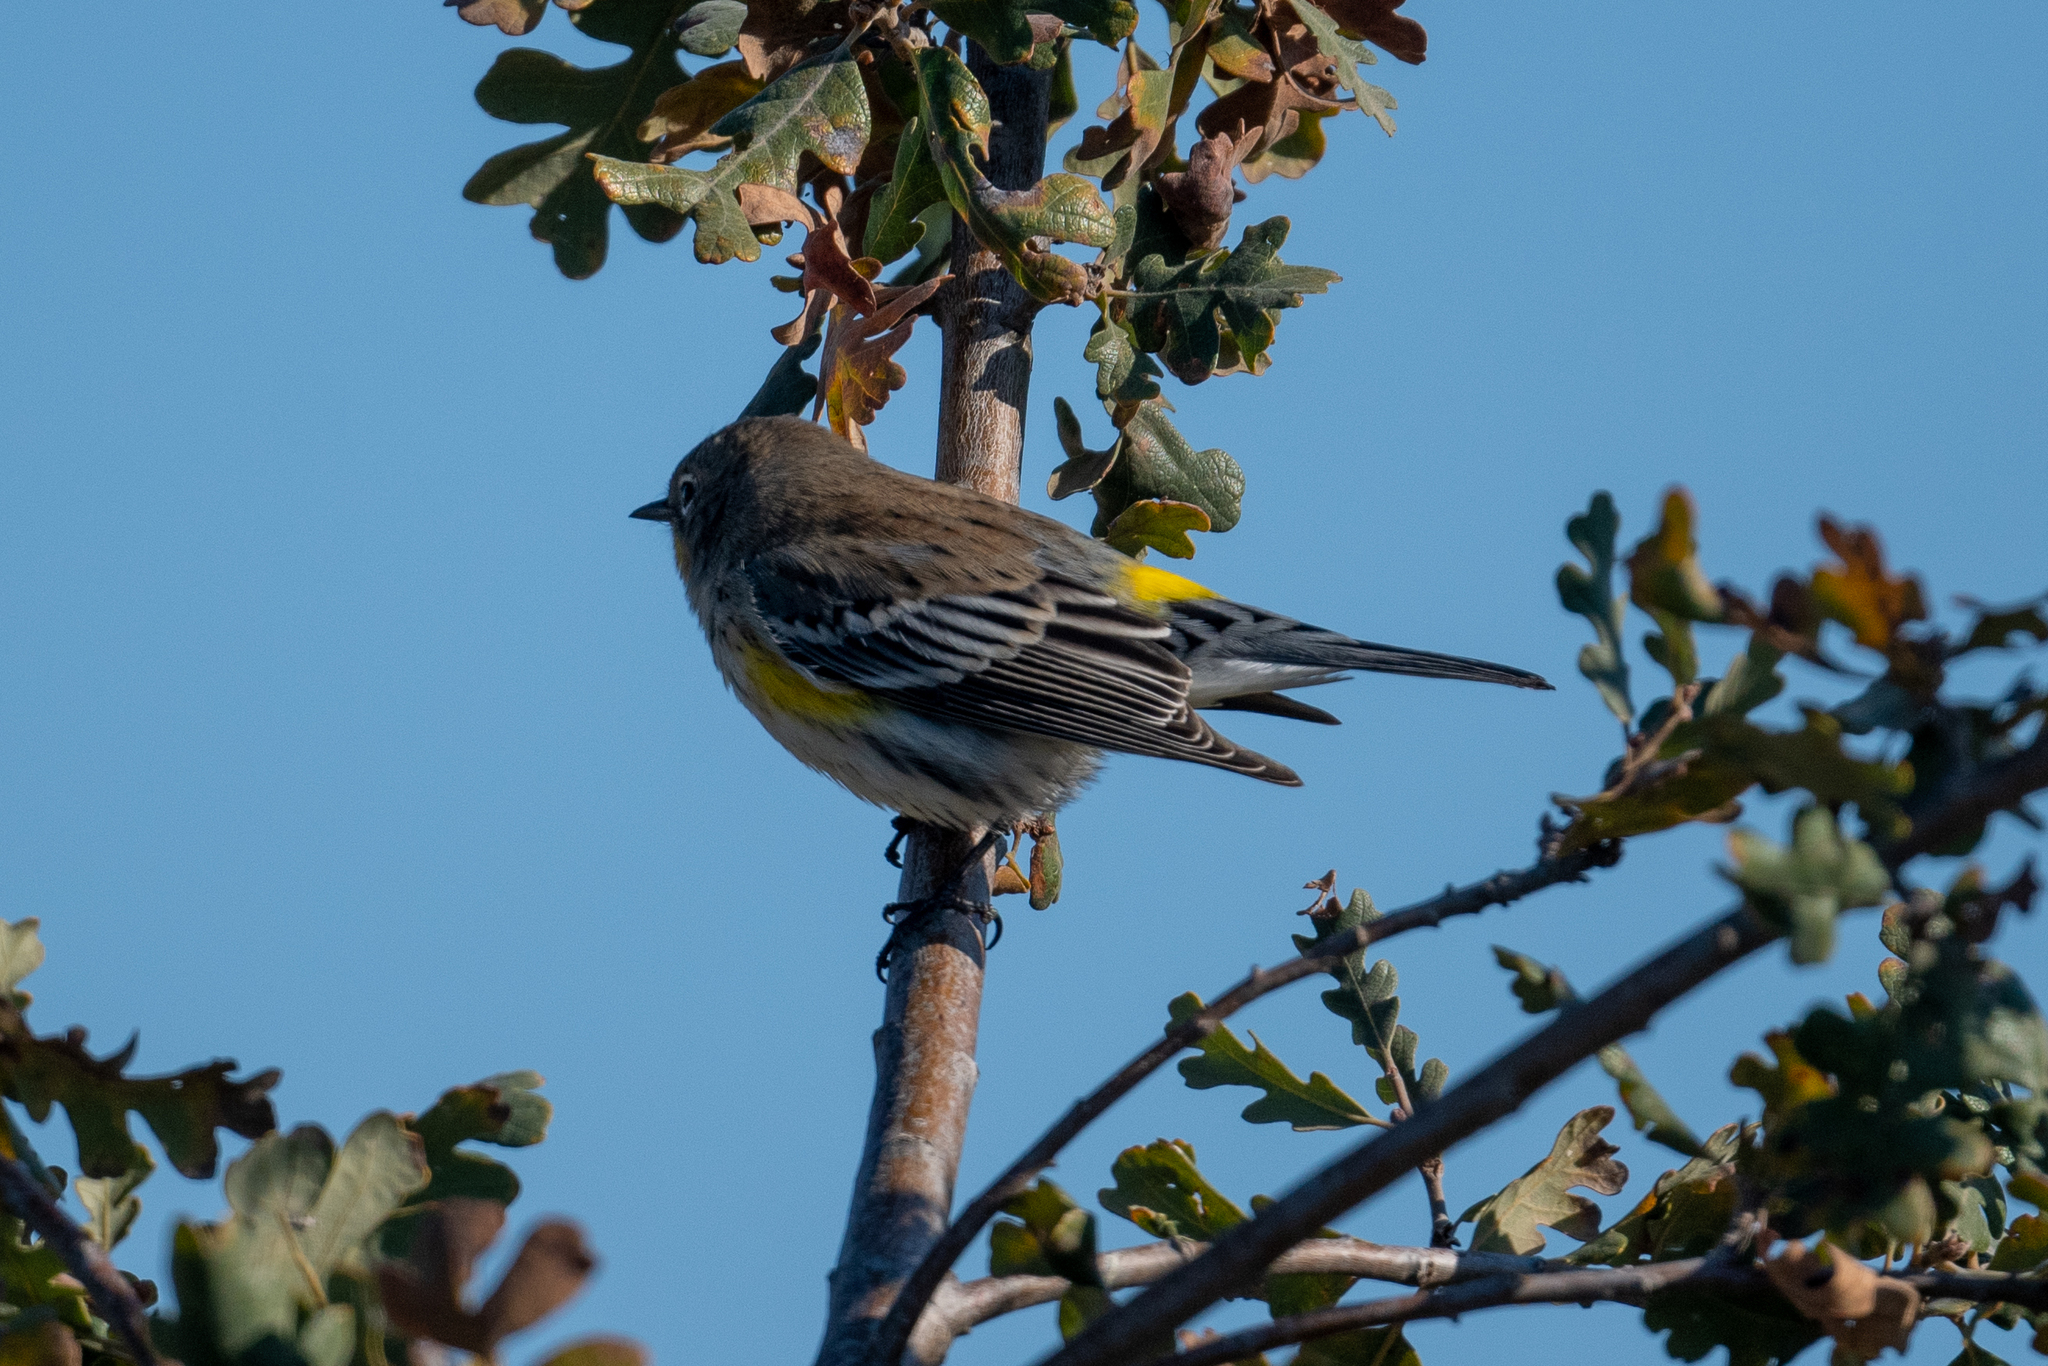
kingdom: Animalia
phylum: Chordata
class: Aves
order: Passeriformes
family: Parulidae
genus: Setophaga
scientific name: Setophaga coronata
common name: Myrtle warbler
